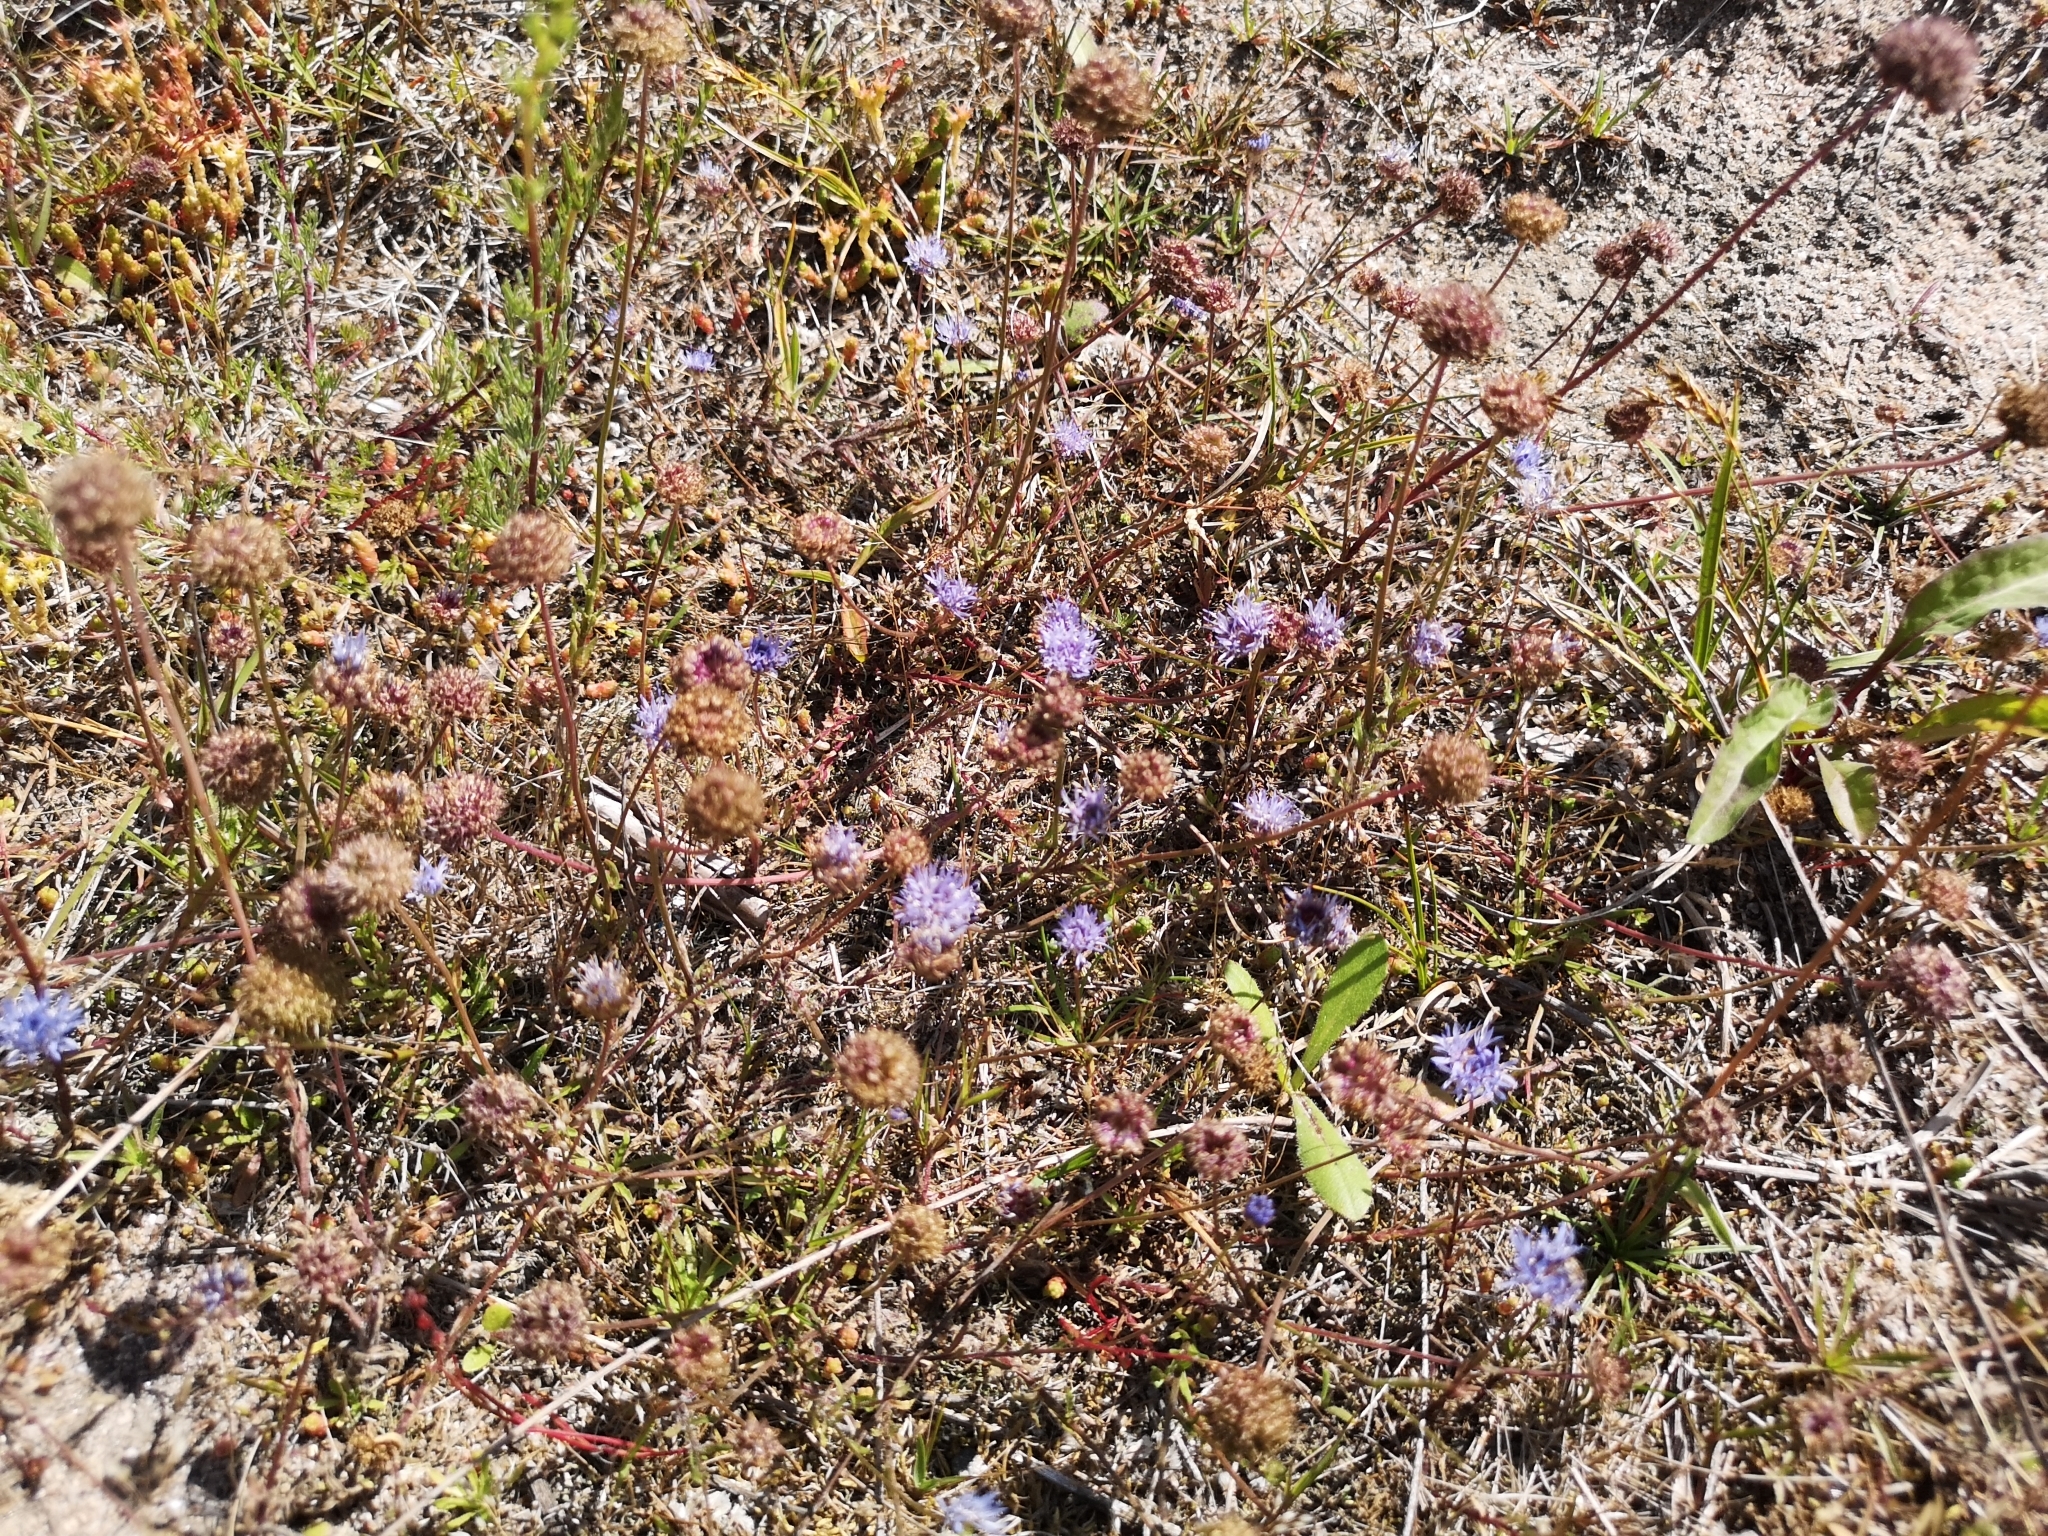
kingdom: Plantae
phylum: Tracheophyta
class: Magnoliopsida
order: Asterales
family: Campanulaceae
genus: Jasione
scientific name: Jasione montana
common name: Sheep's-bit
